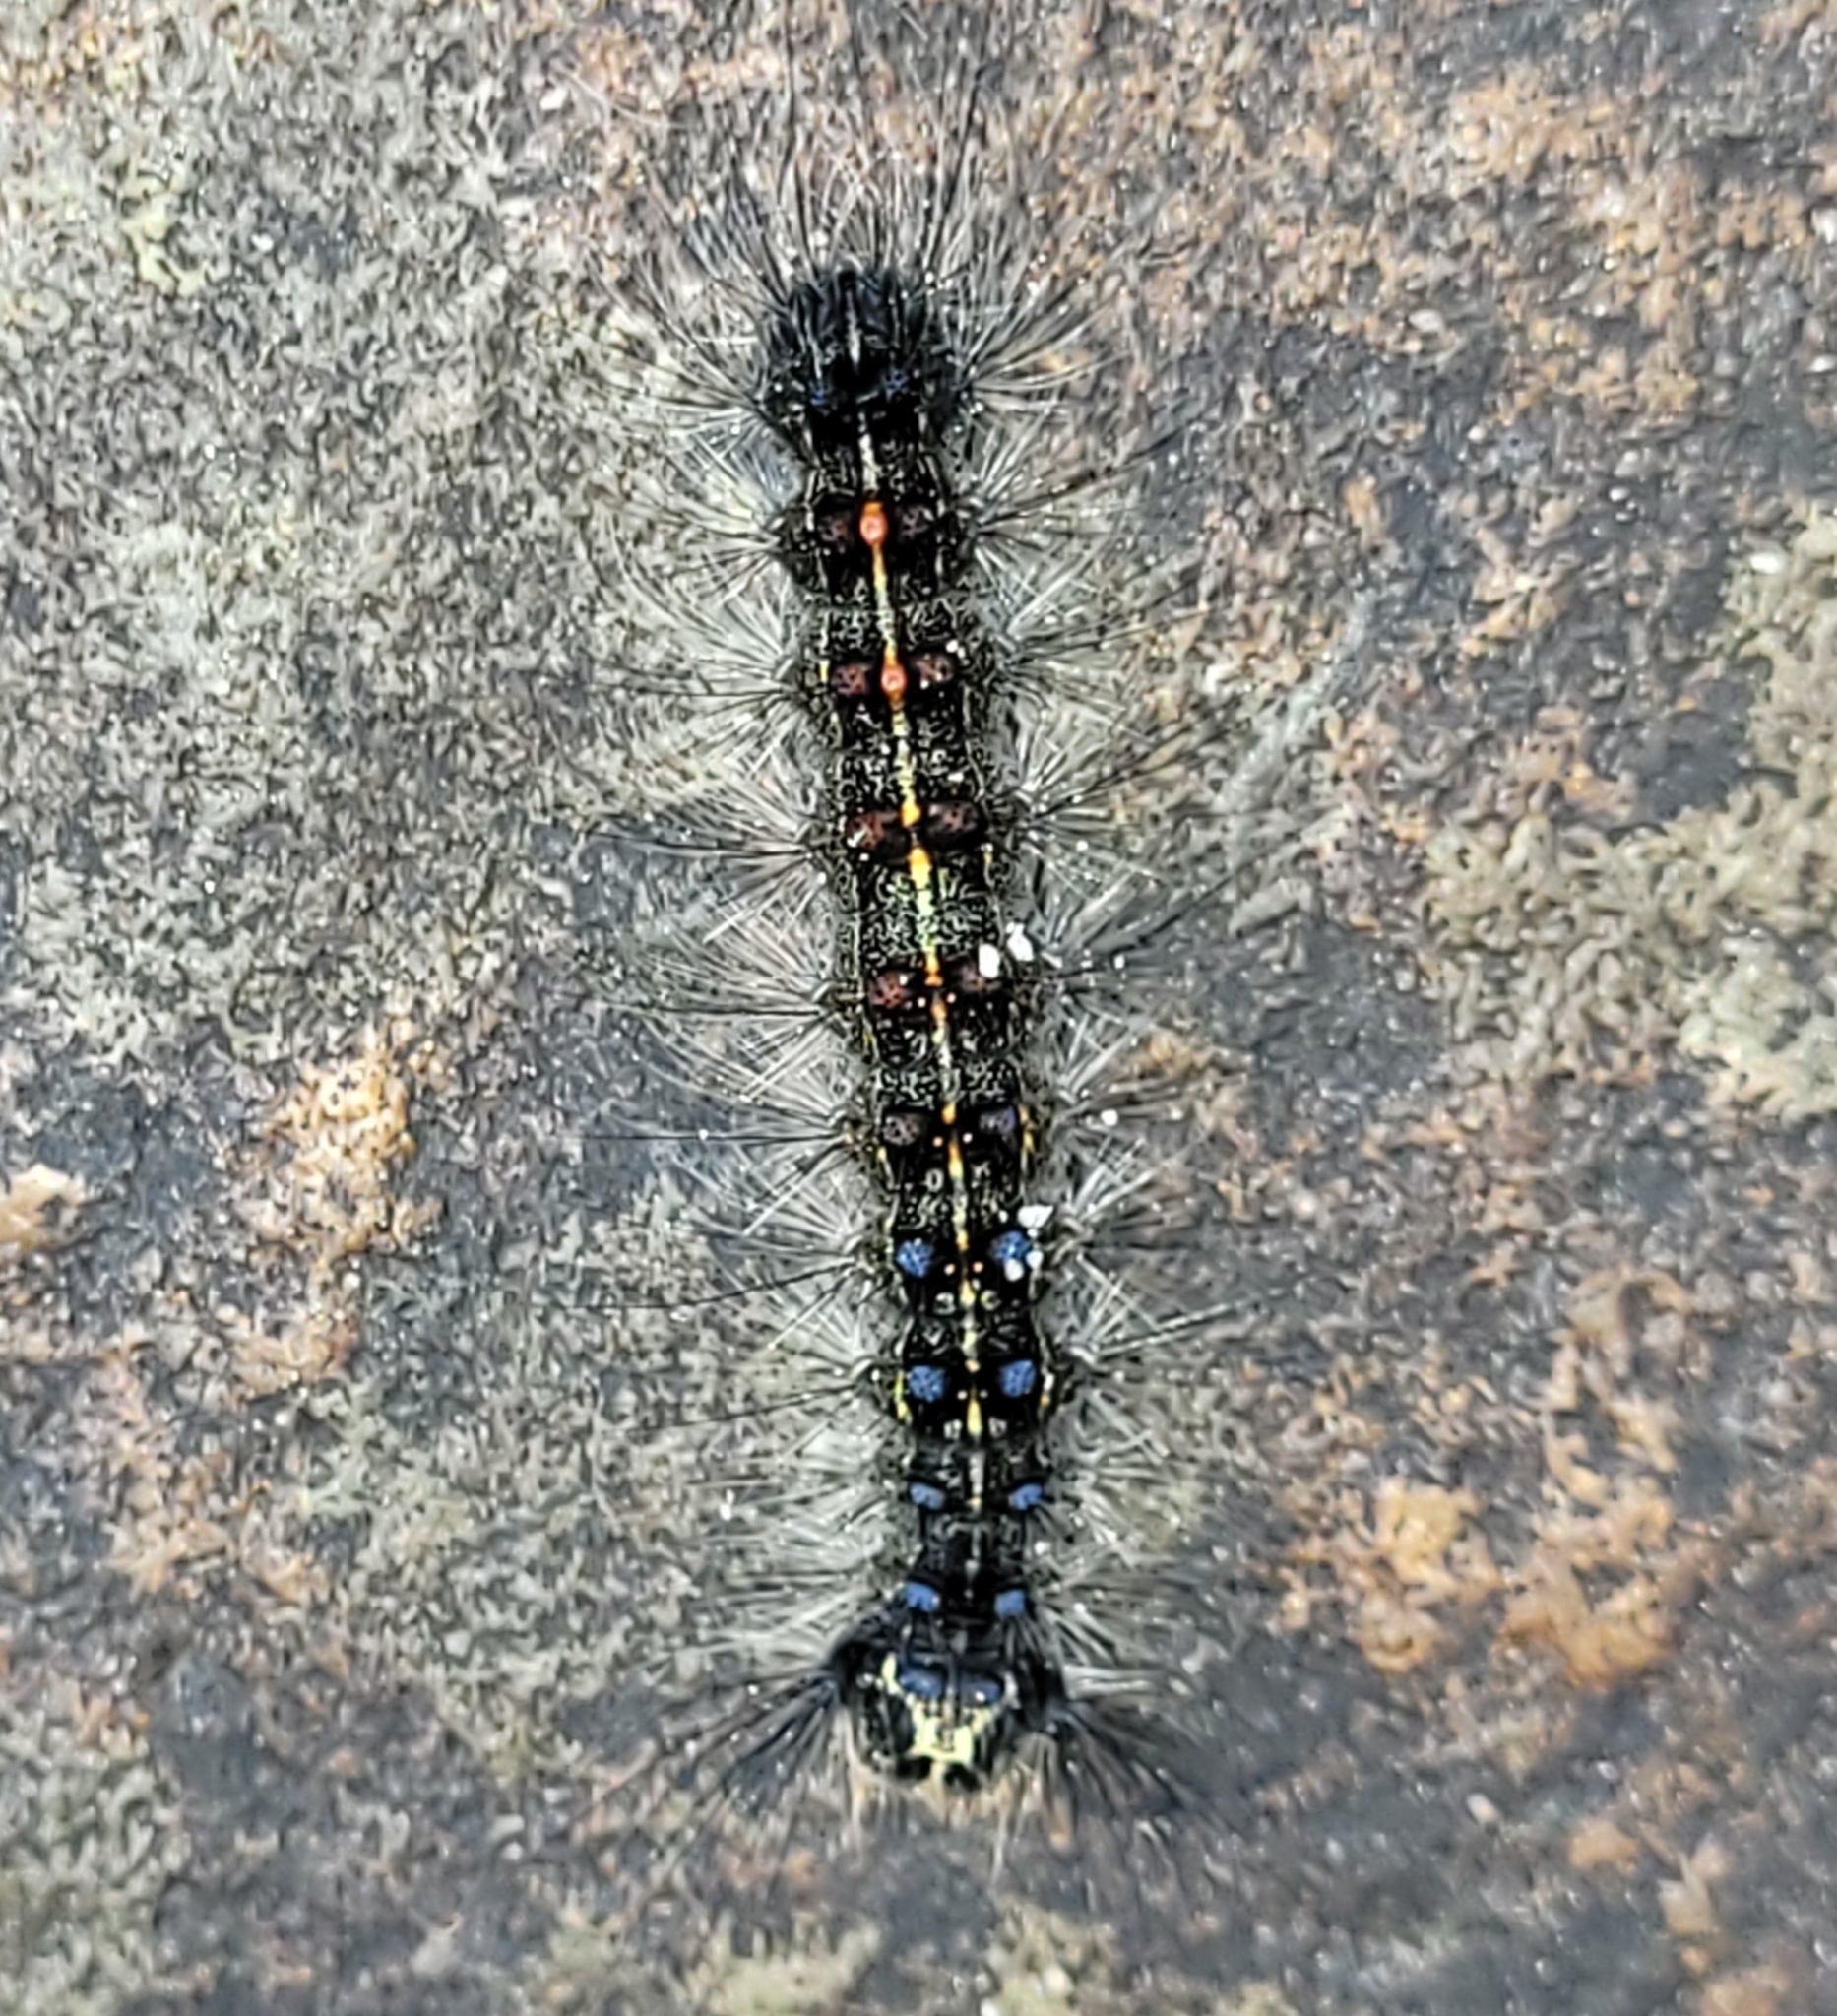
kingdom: Animalia
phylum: Arthropoda
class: Insecta
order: Lepidoptera
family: Erebidae
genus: Lymantria
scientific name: Lymantria dispar
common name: Gypsy moth
